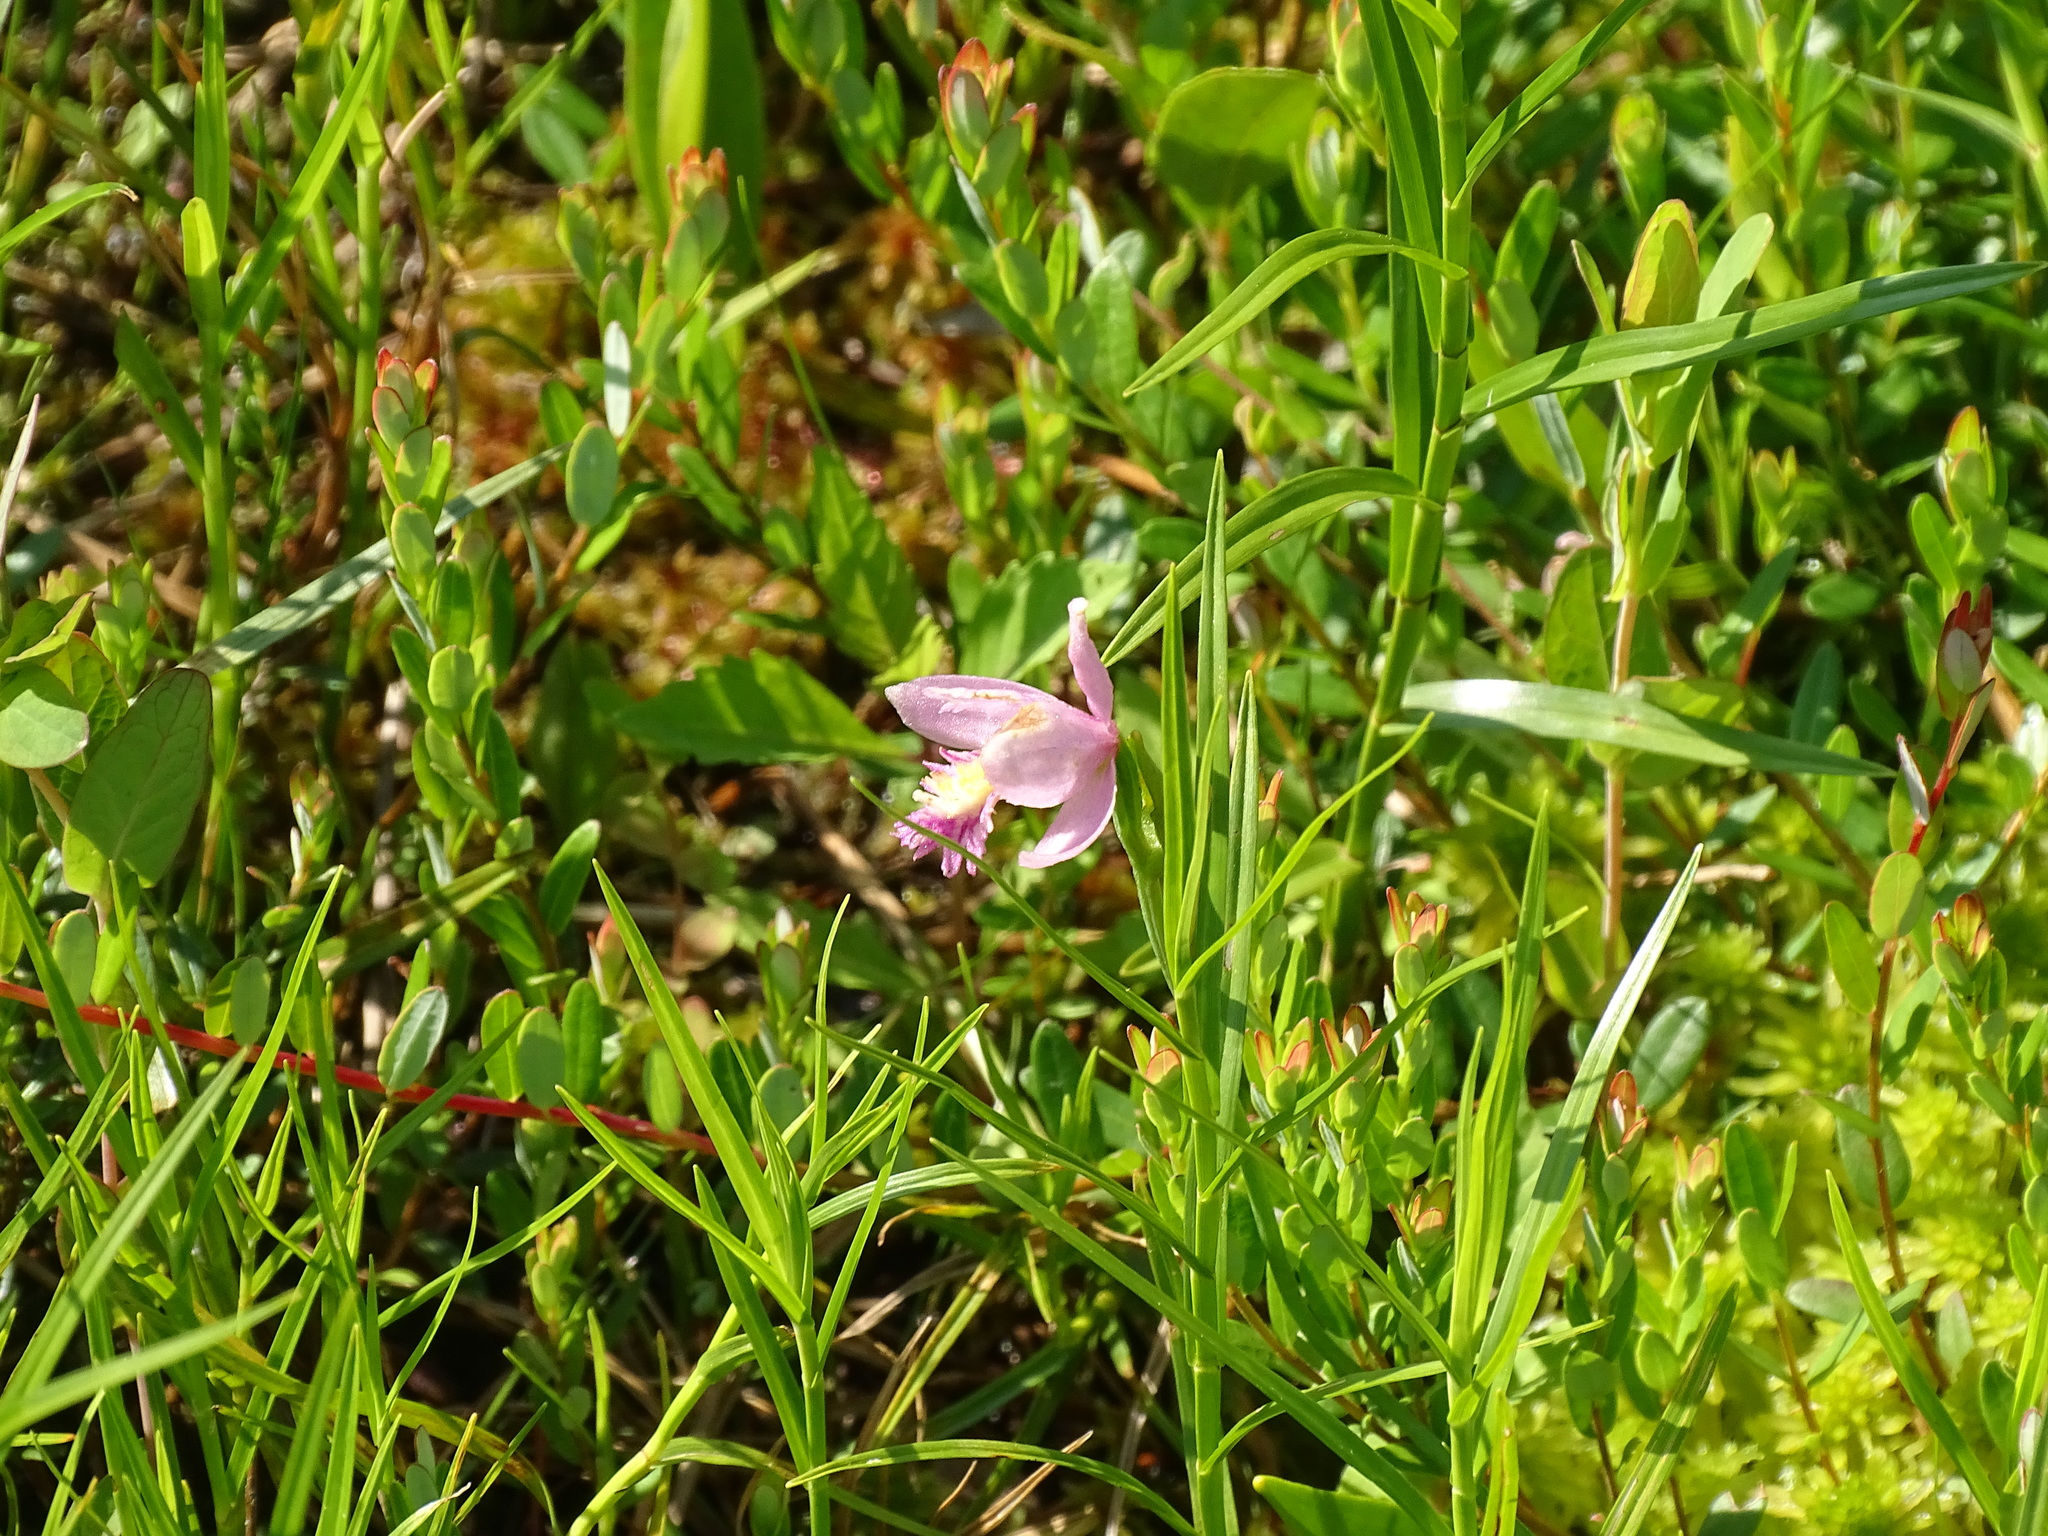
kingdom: Plantae
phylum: Tracheophyta
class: Liliopsida
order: Asparagales
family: Orchidaceae
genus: Pogonia
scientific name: Pogonia ophioglossoides
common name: Rose pogonia
